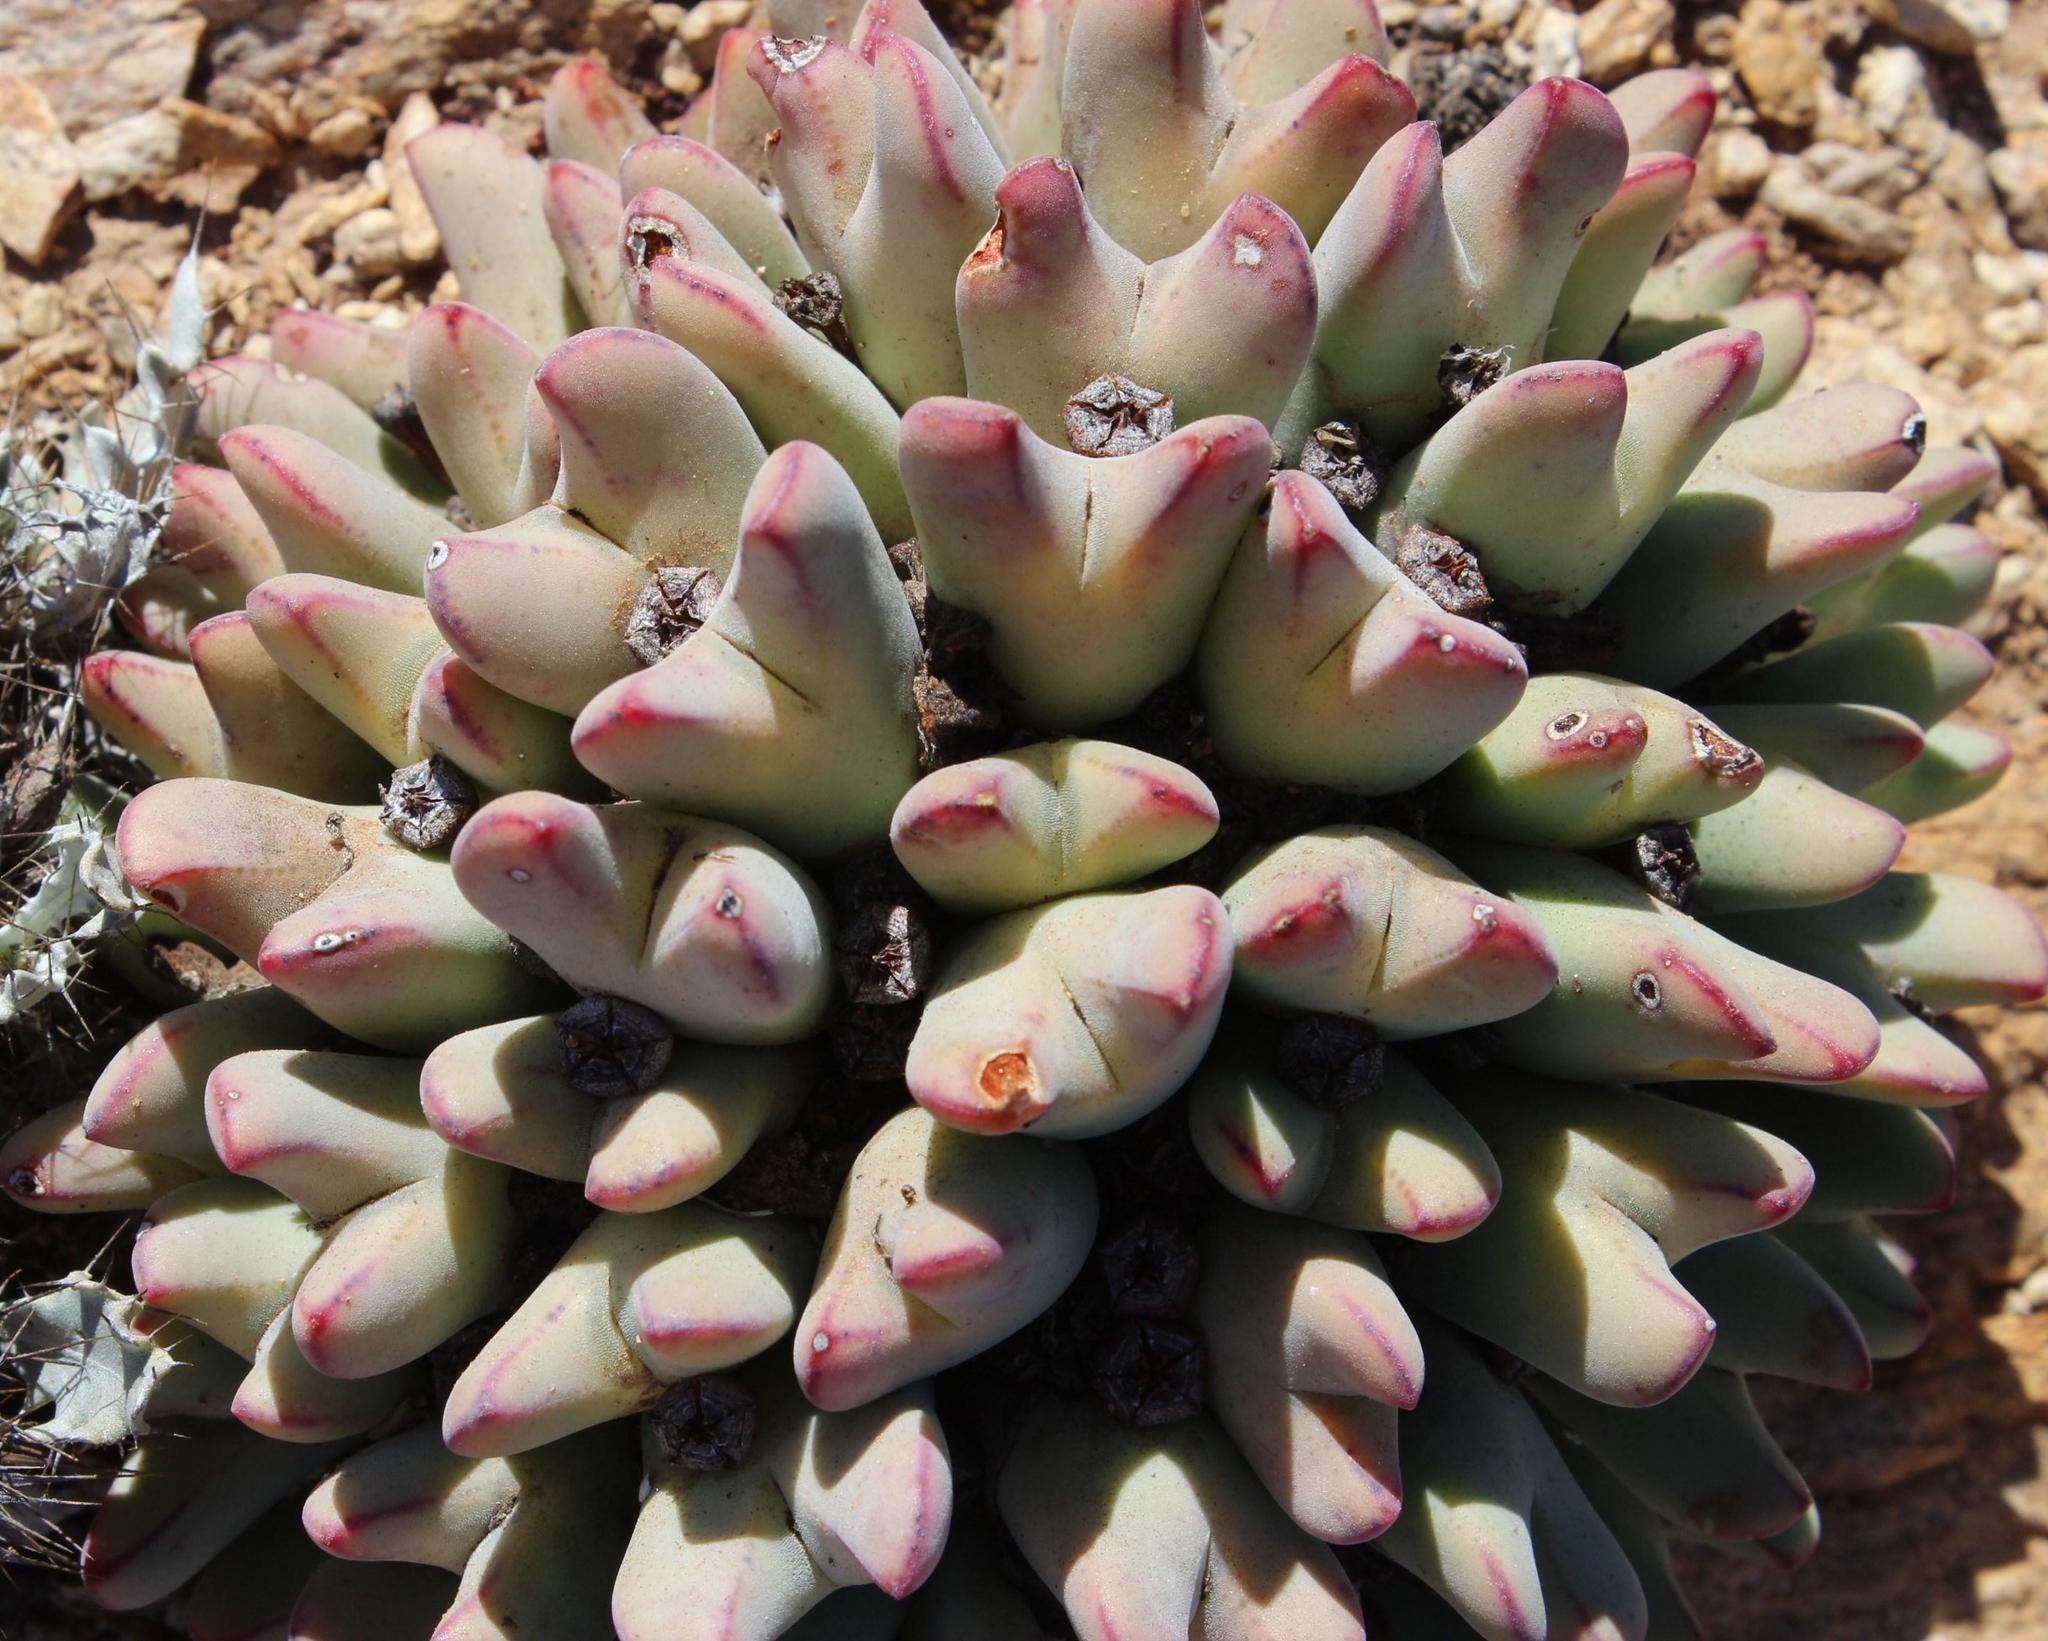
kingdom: Plantae
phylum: Tracheophyta
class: Magnoliopsida
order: Caryophyllales
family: Aizoaceae
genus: Conophytum
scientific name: Conophytum bilobum
